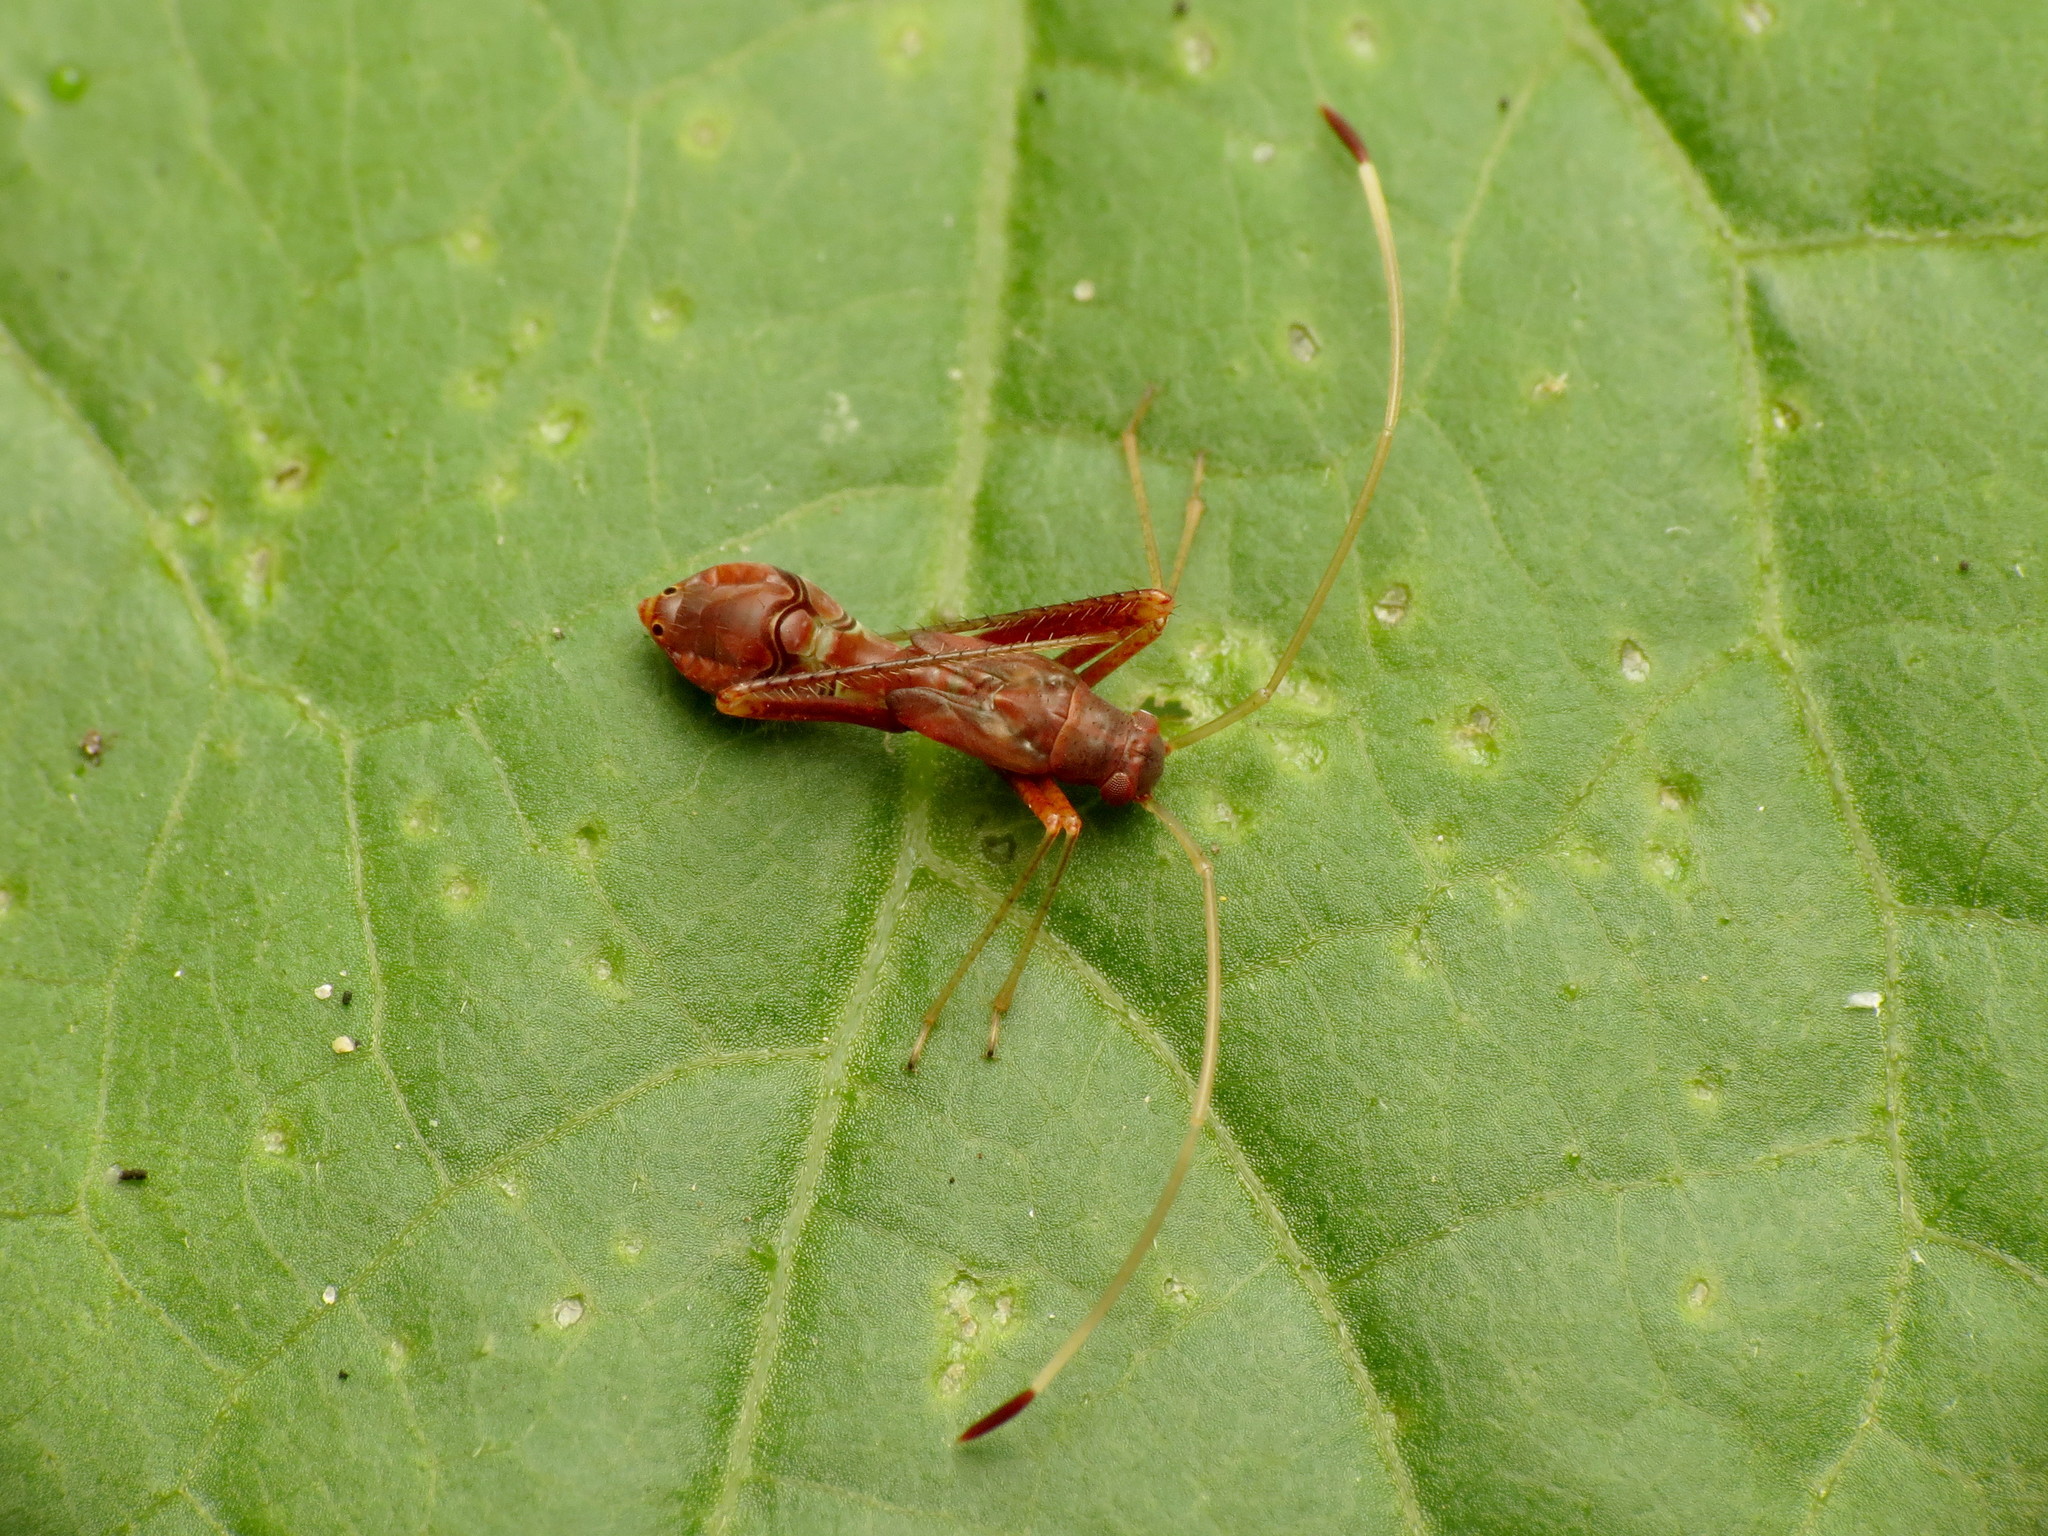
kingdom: Animalia
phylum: Arthropoda
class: Insecta
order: Hemiptera
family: Miridae
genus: Paraxenetus
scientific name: Paraxenetus guttulatus
